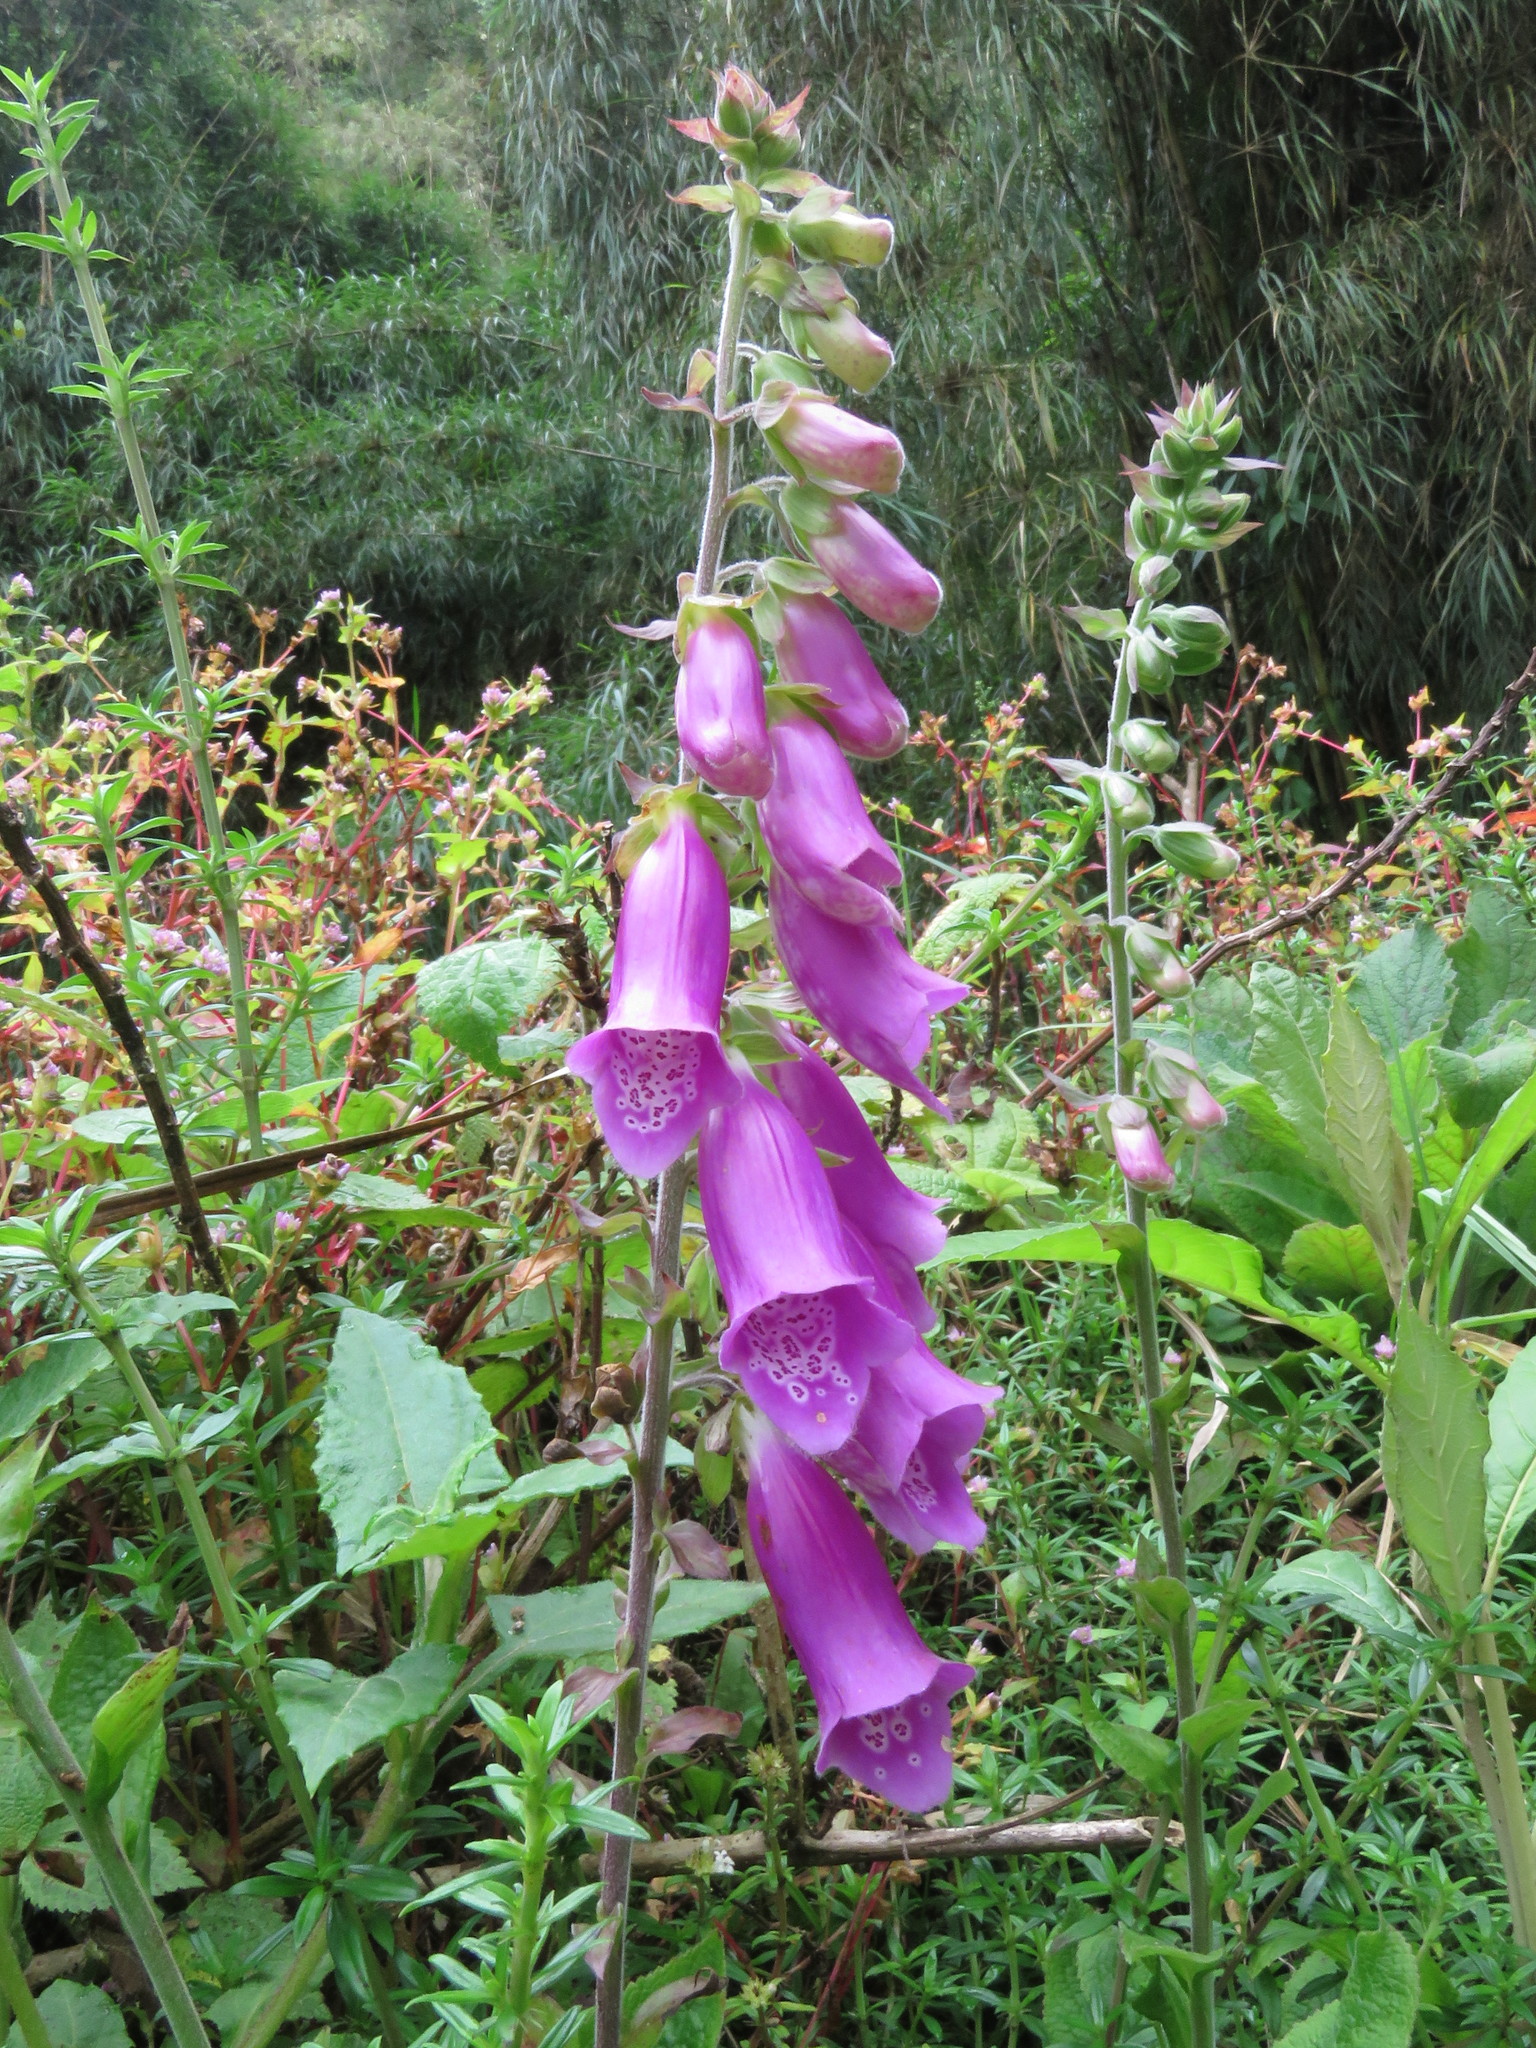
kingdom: Plantae
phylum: Tracheophyta
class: Magnoliopsida
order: Lamiales
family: Plantaginaceae
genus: Digitalis
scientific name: Digitalis purpurea
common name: Foxglove
